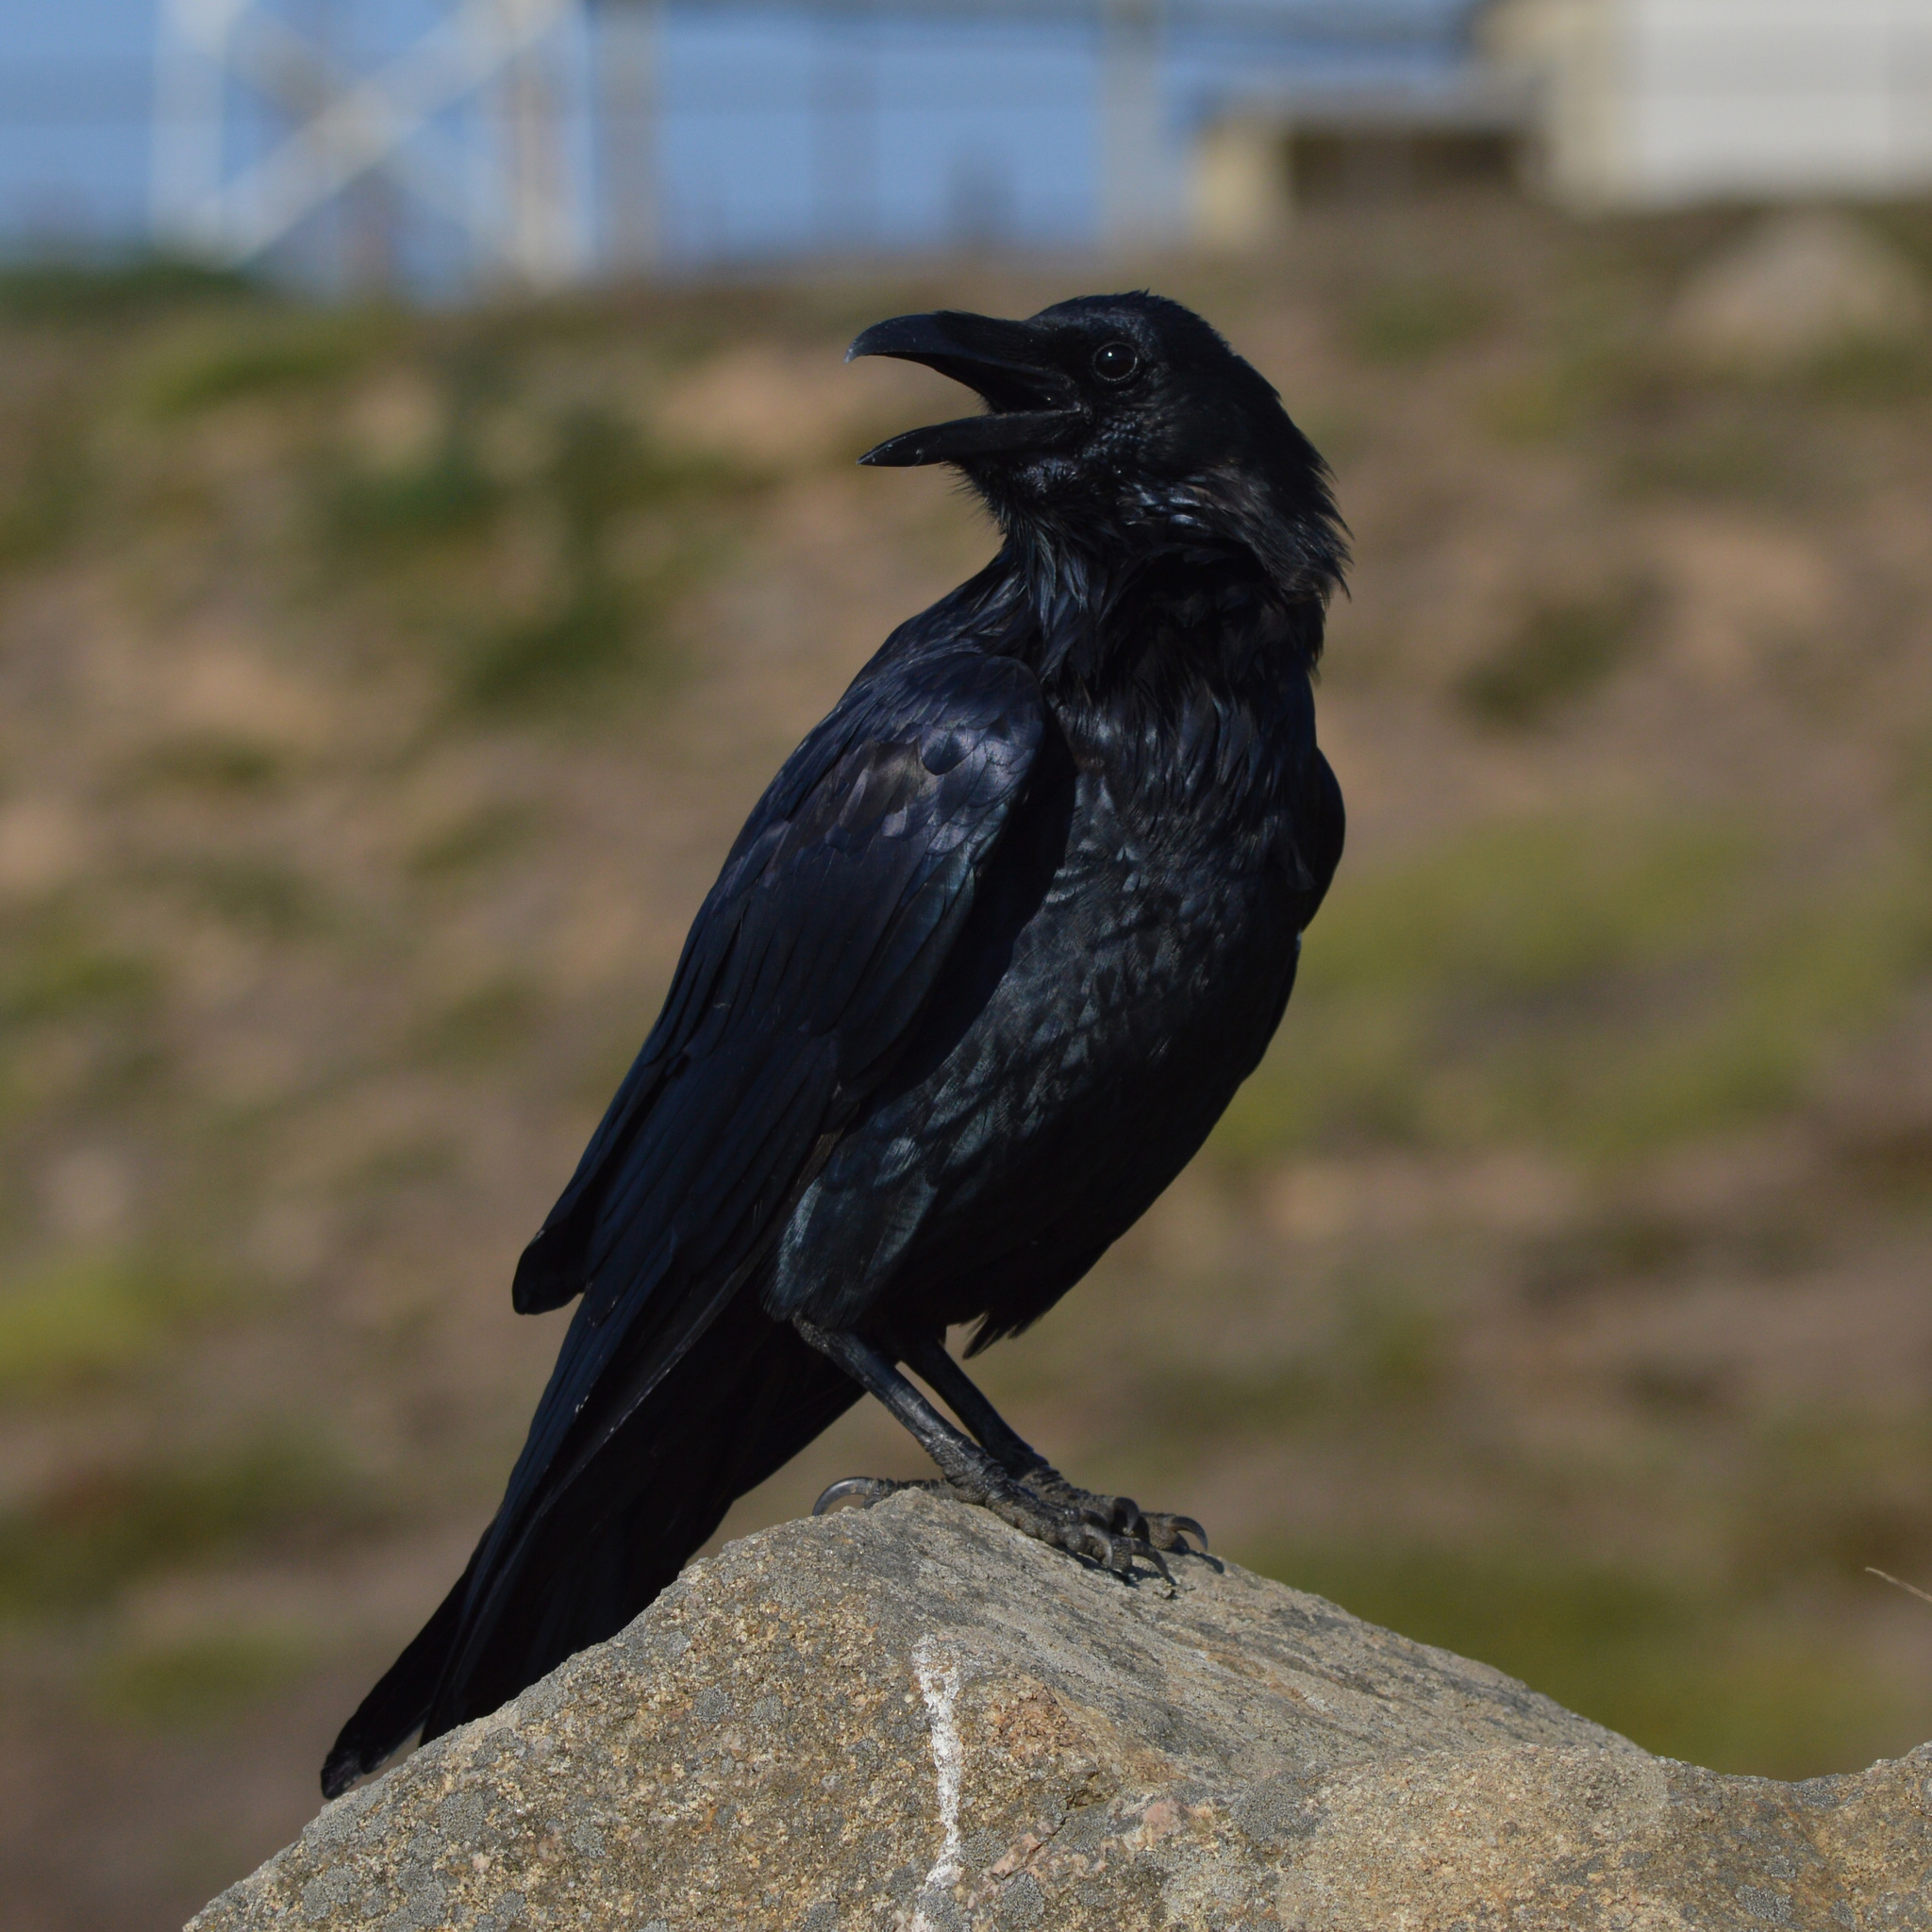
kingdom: Animalia
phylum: Chordata
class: Aves
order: Passeriformes
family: Corvidae
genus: Corvus
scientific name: Corvus corax
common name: Common raven
